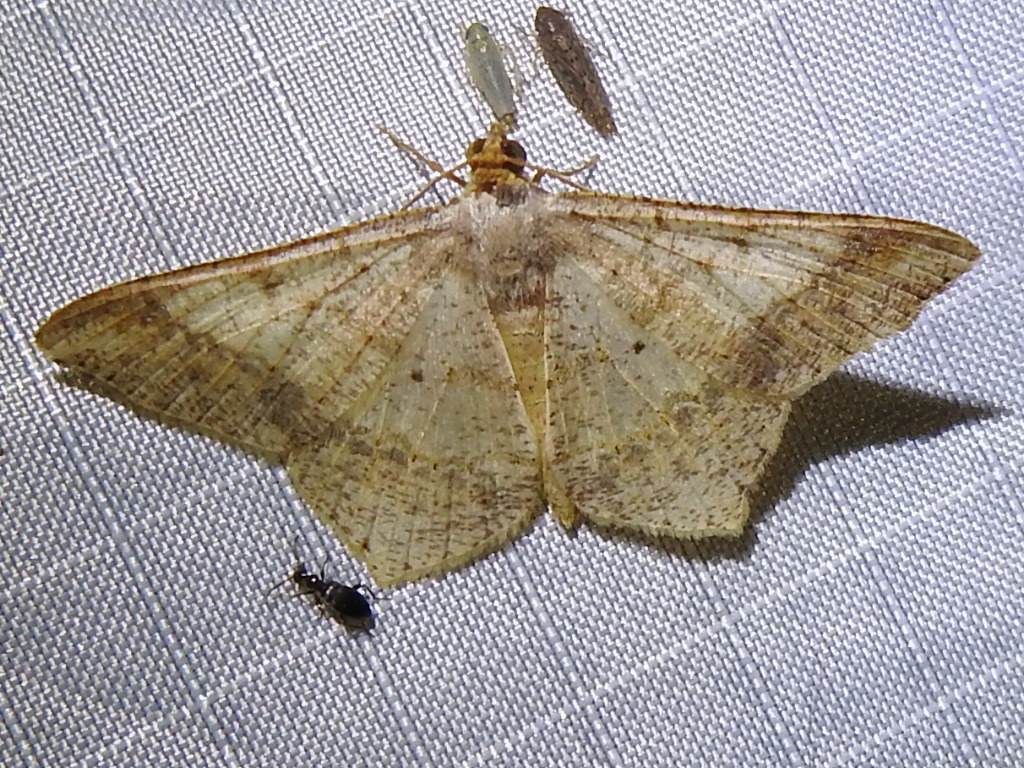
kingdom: Animalia
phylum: Arthropoda
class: Insecta
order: Lepidoptera
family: Geometridae
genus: Macaria
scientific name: Macaria abydata
